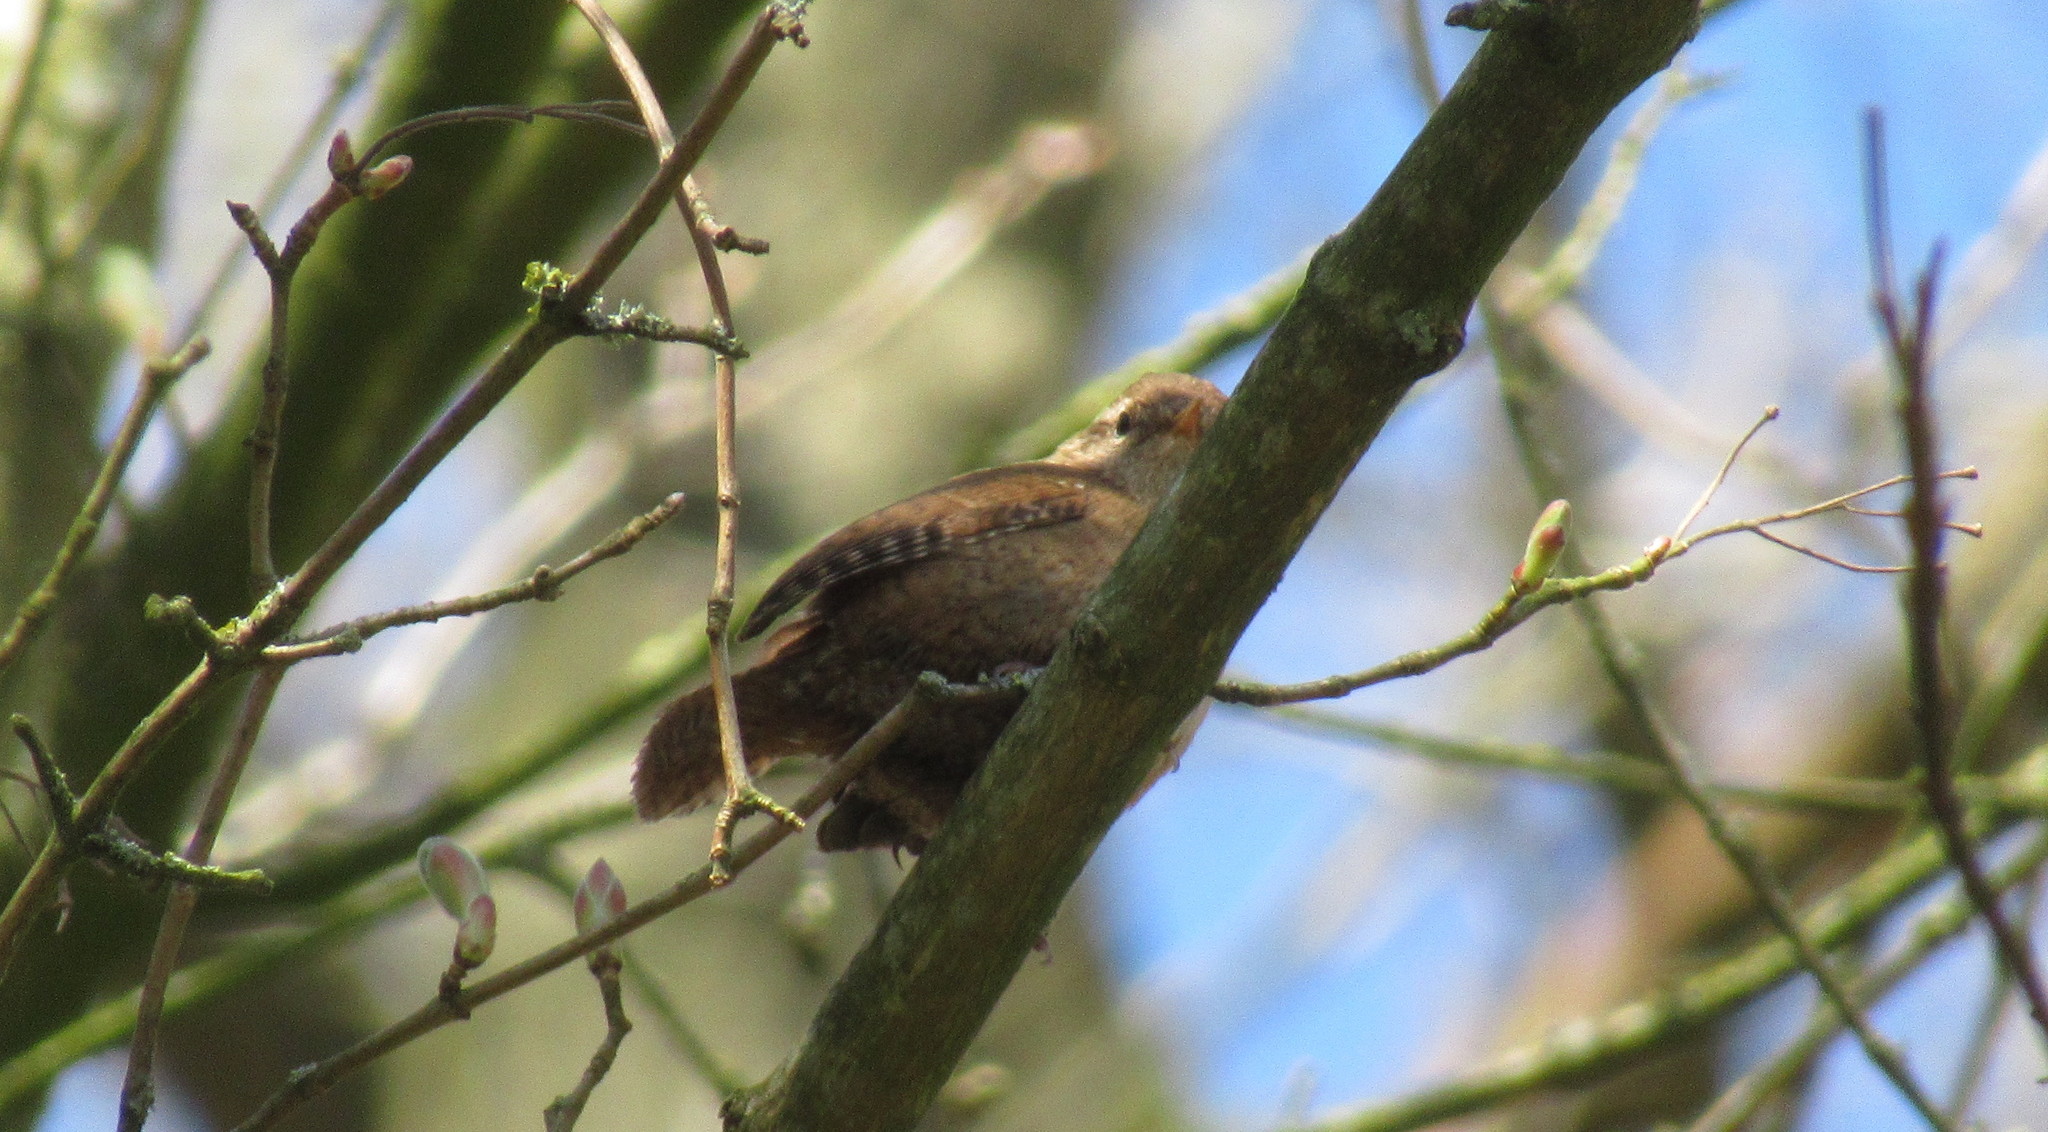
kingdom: Animalia
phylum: Chordata
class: Aves
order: Passeriformes
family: Troglodytidae
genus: Troglodytes
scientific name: Troglodytes troglodytes
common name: Eurasian wren
